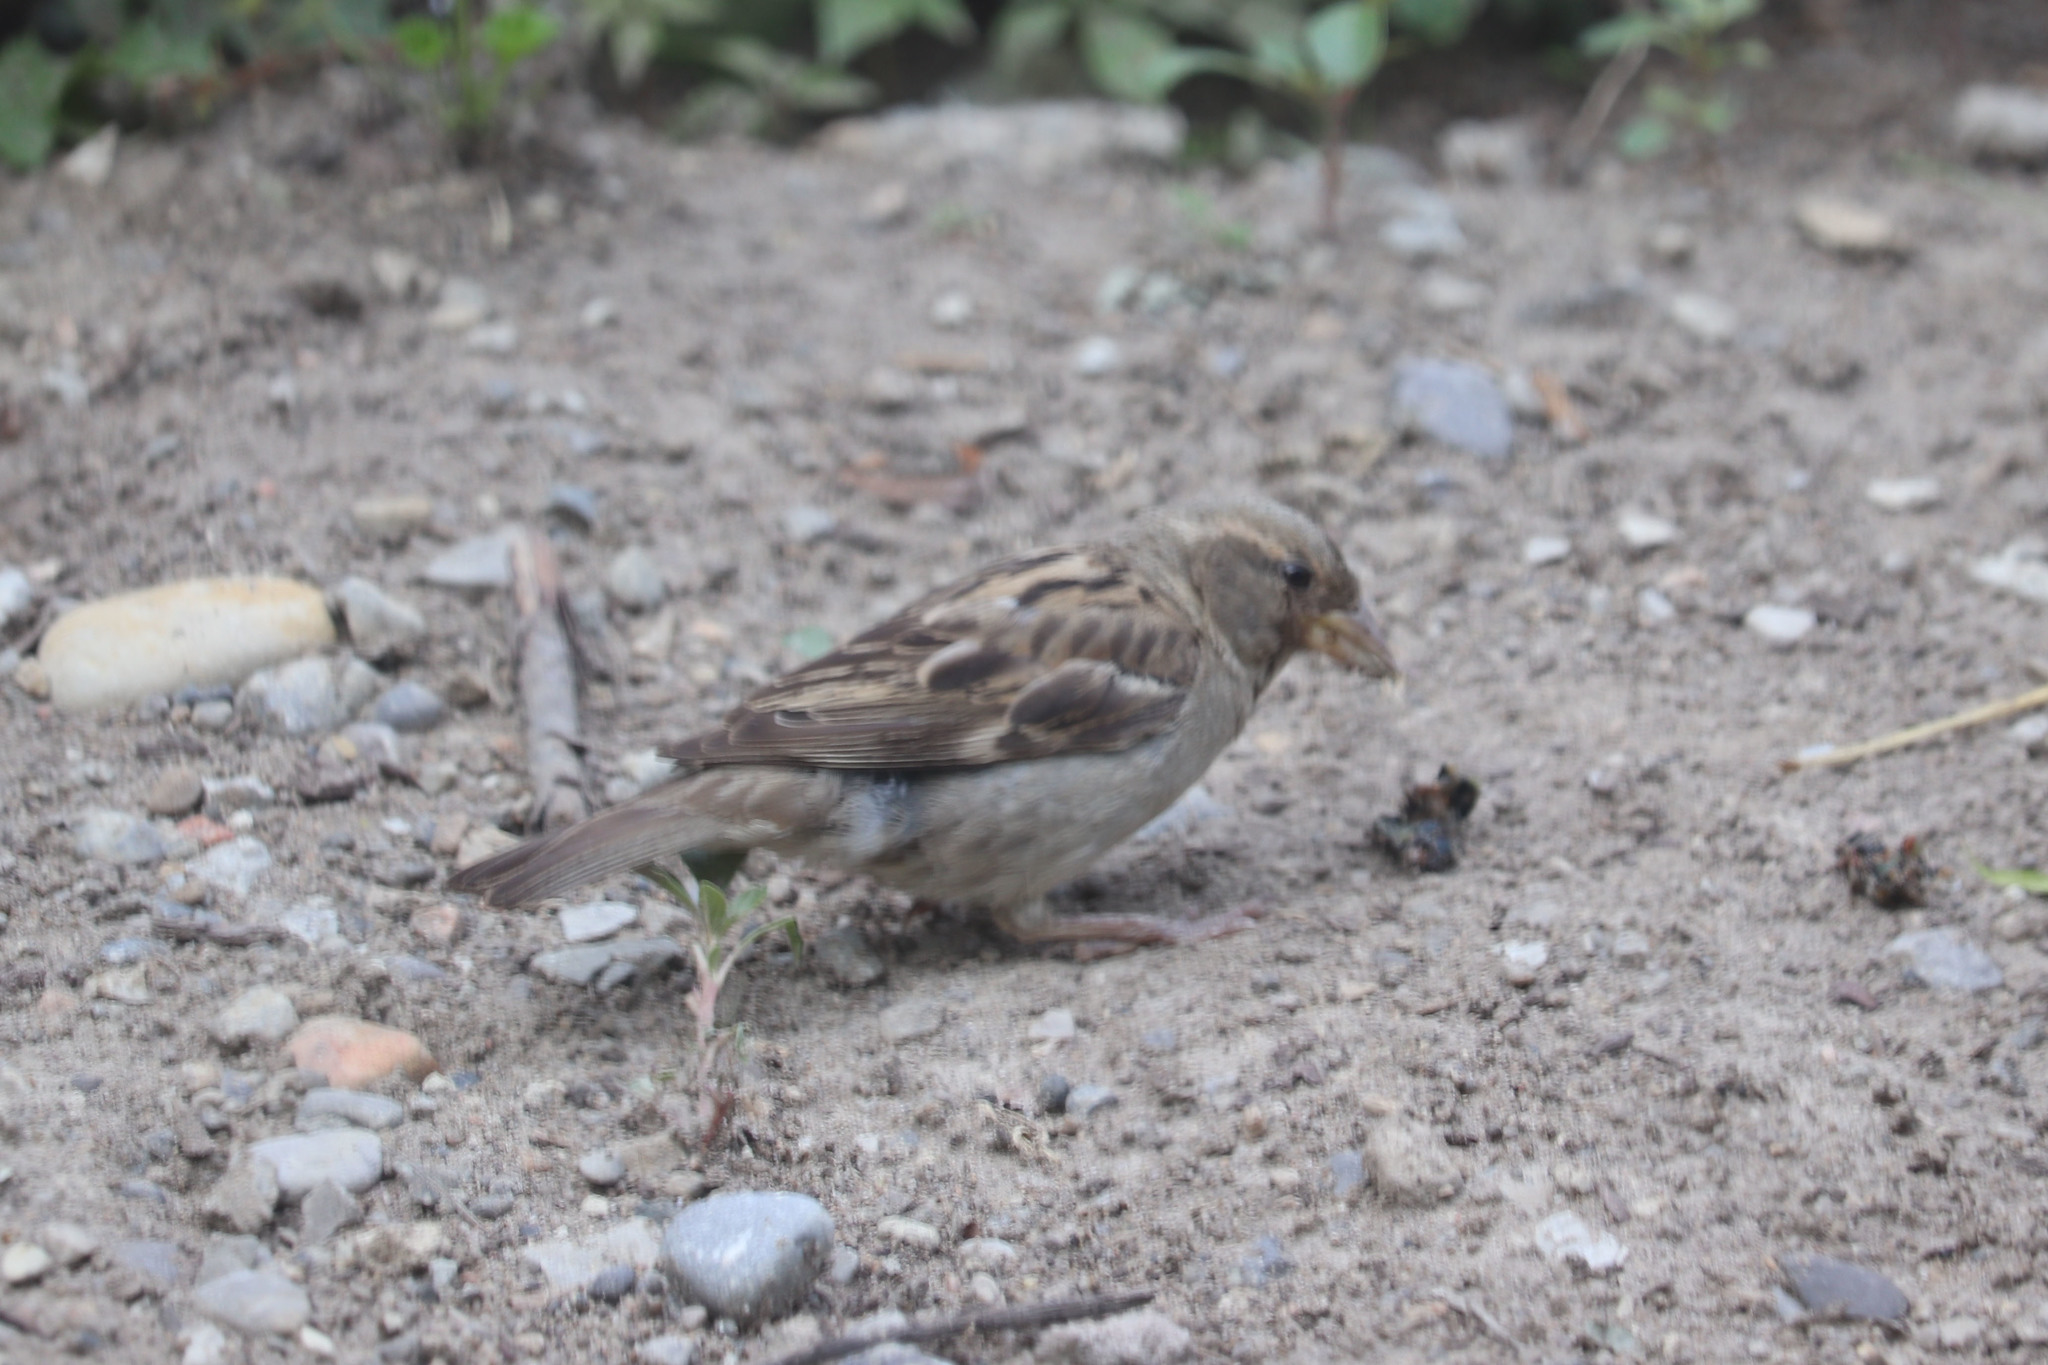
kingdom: Animalia
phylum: Chordata
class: Aves
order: Passeriformes
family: Passeridae
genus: Passer
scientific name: Passer domesticus
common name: House sparrow
